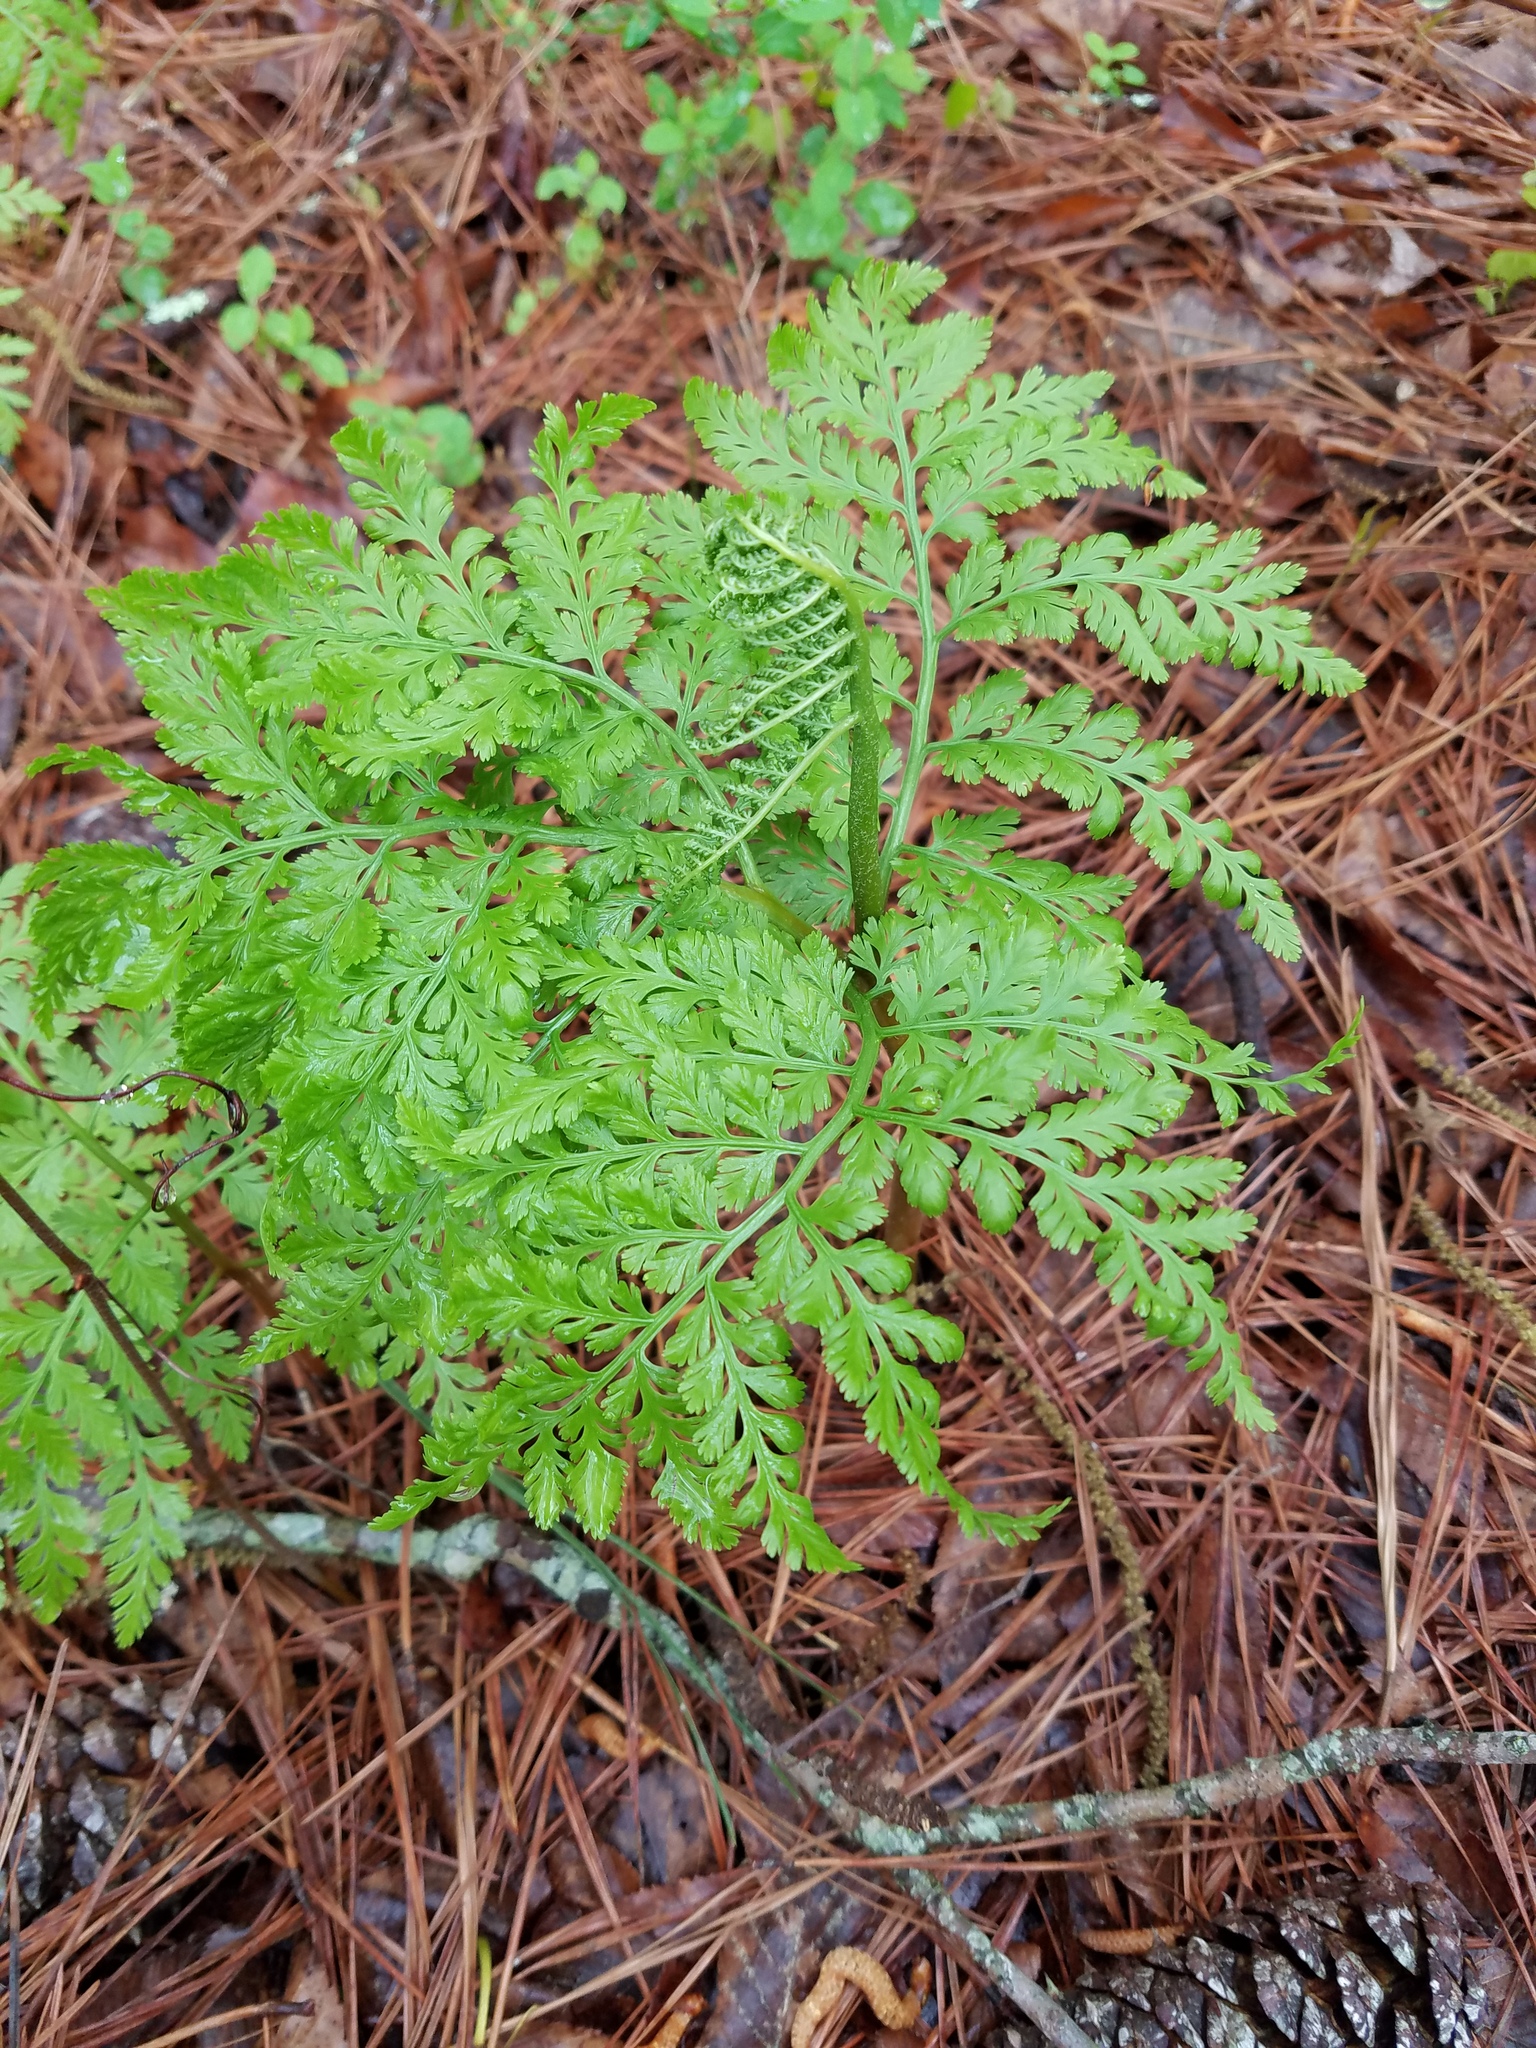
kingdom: Plantae
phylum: Tracheophyta
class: Polypodiopsida
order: Ophioglossales
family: Ophioglossaceae
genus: Botrypus
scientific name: Botrypus virginianus
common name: Common grapefern
